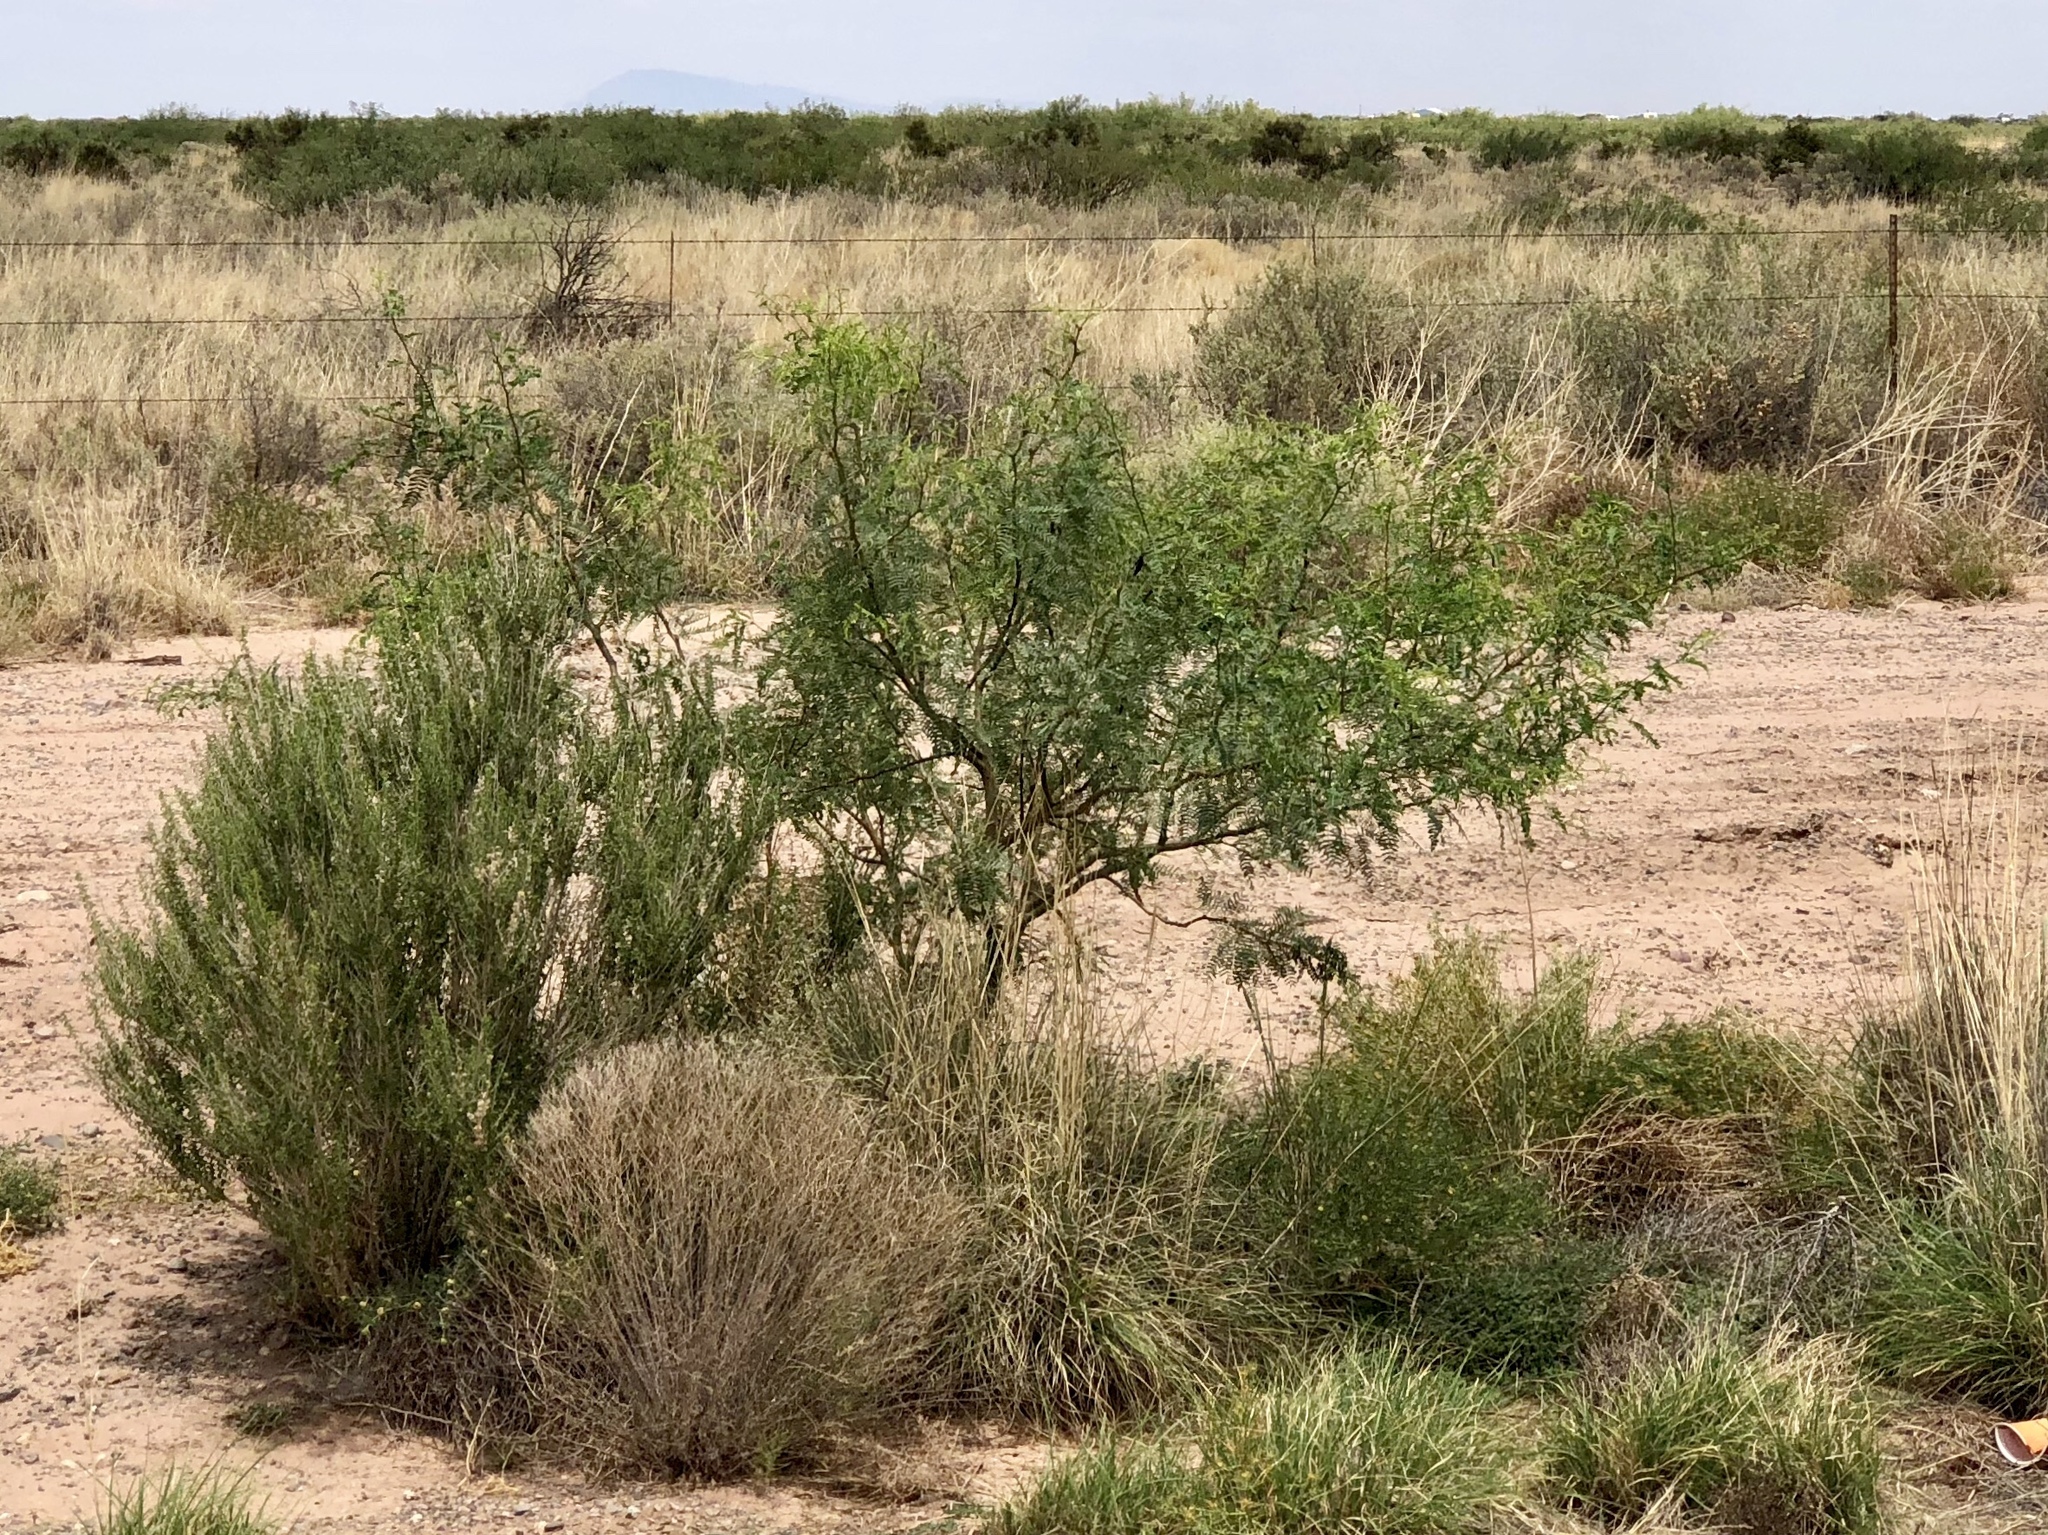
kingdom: Plantae
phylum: Tracheophyta
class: Magnoliopsida
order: Fabales
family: Fabaceae
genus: Prosopis
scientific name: Prosopis glandulosa
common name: Honey mesquite
